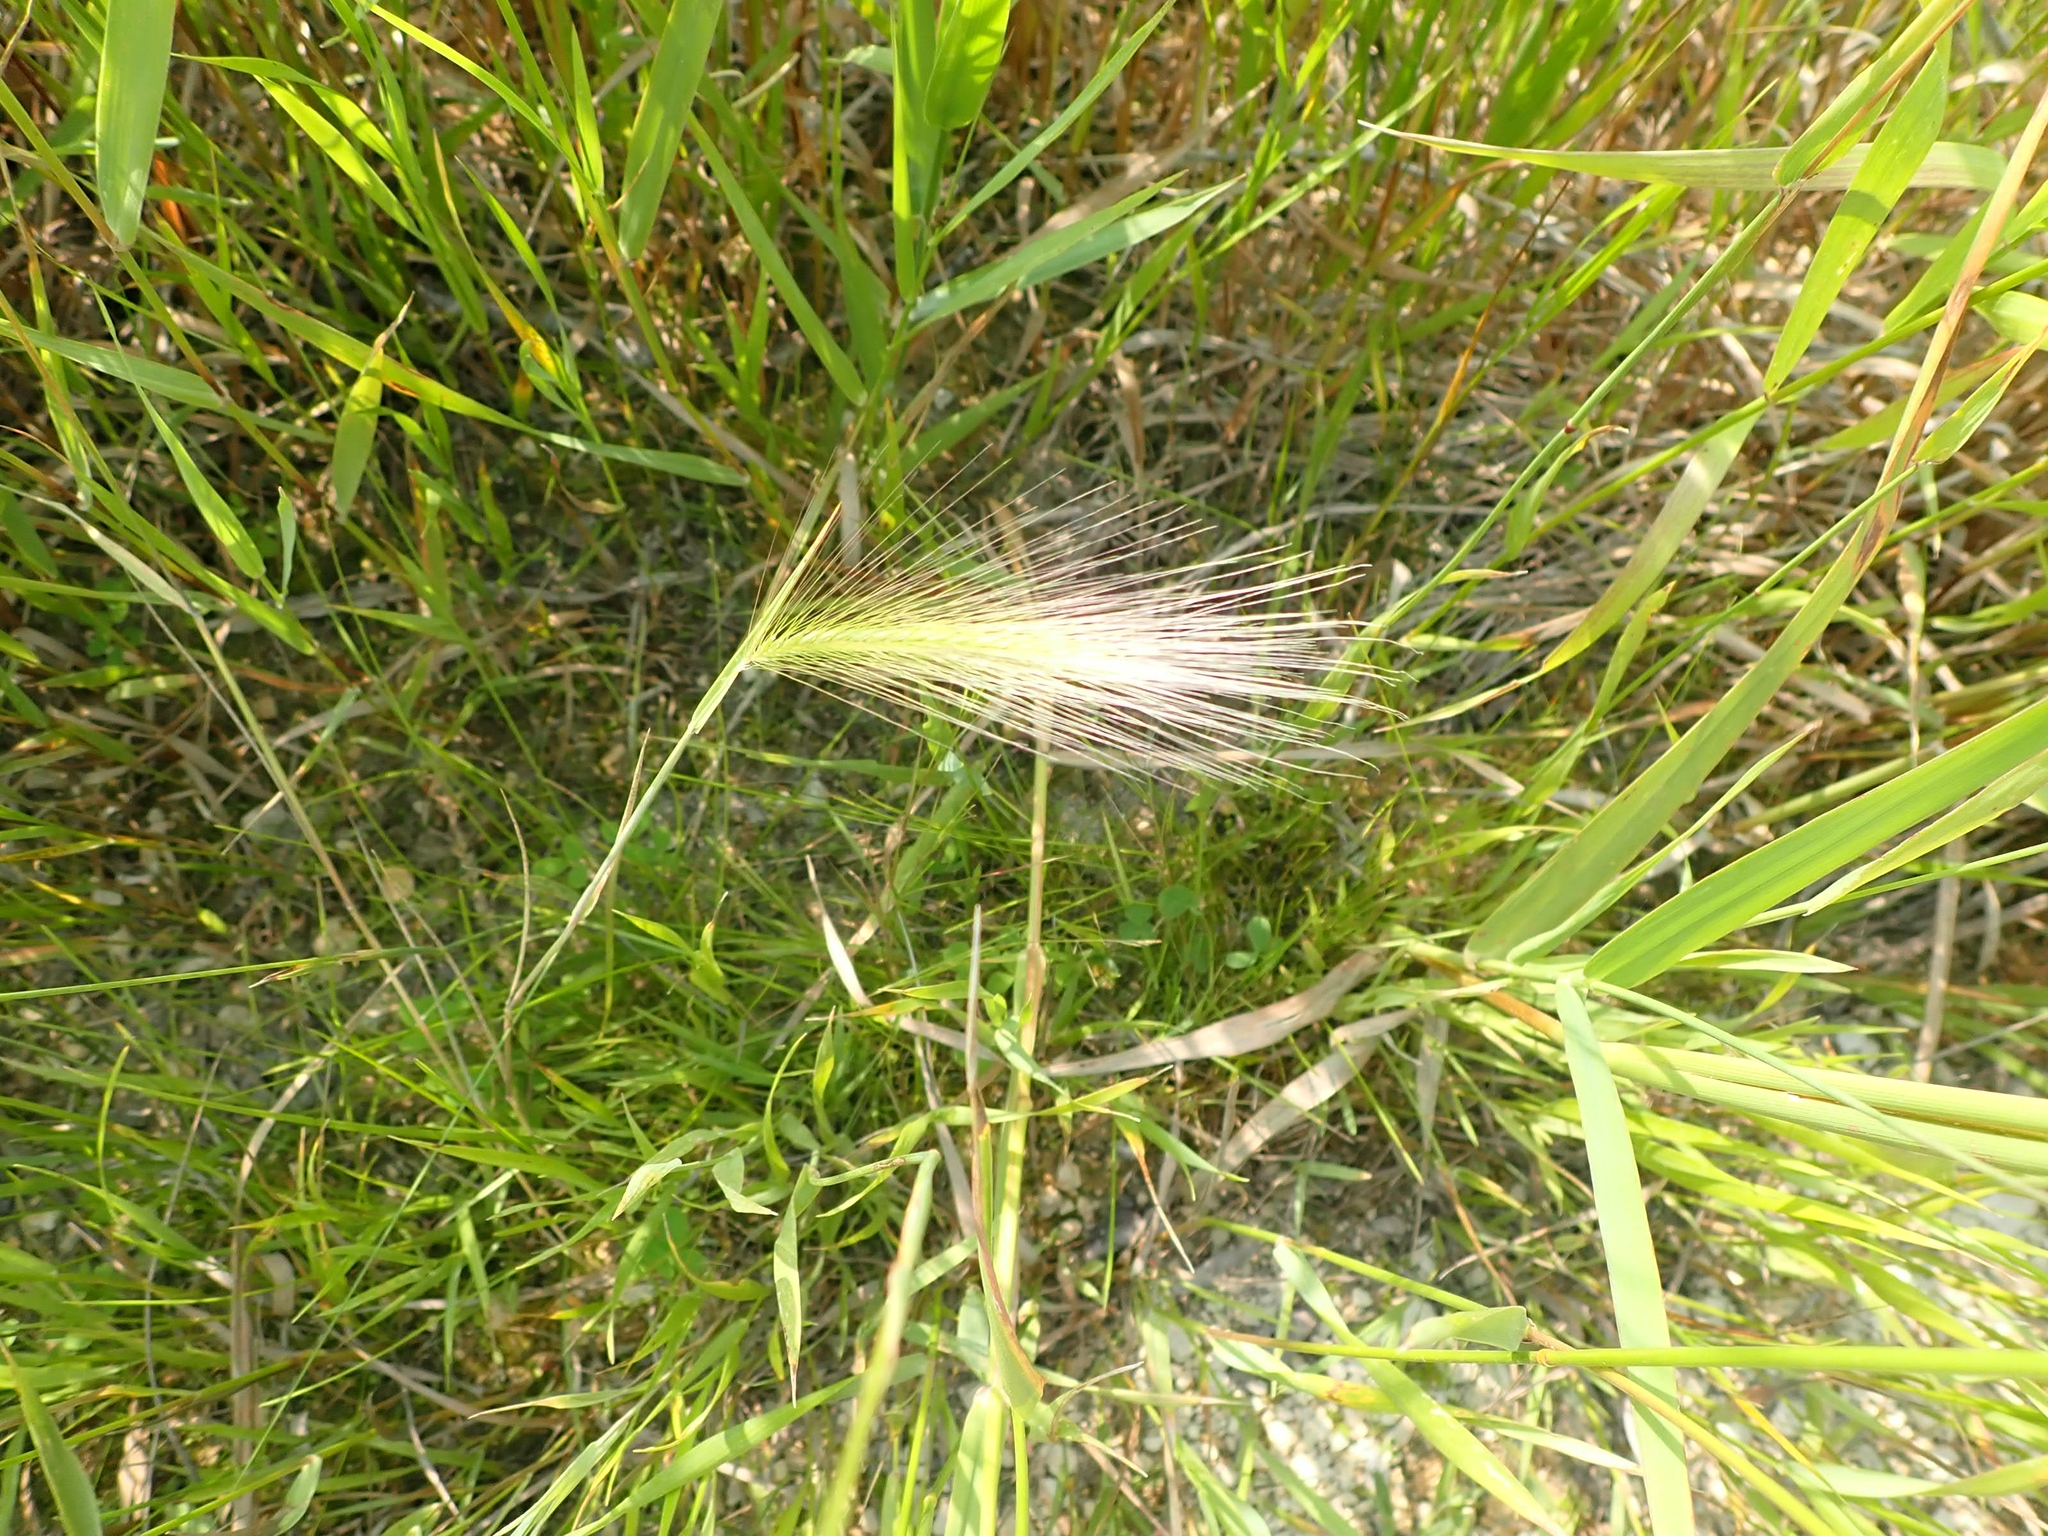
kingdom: Plantae
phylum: Tracheophyta
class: Liliopsida
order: Poales
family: Poaceae
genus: Hordeum
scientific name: Hordeum jubatum
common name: Foxtail barley
